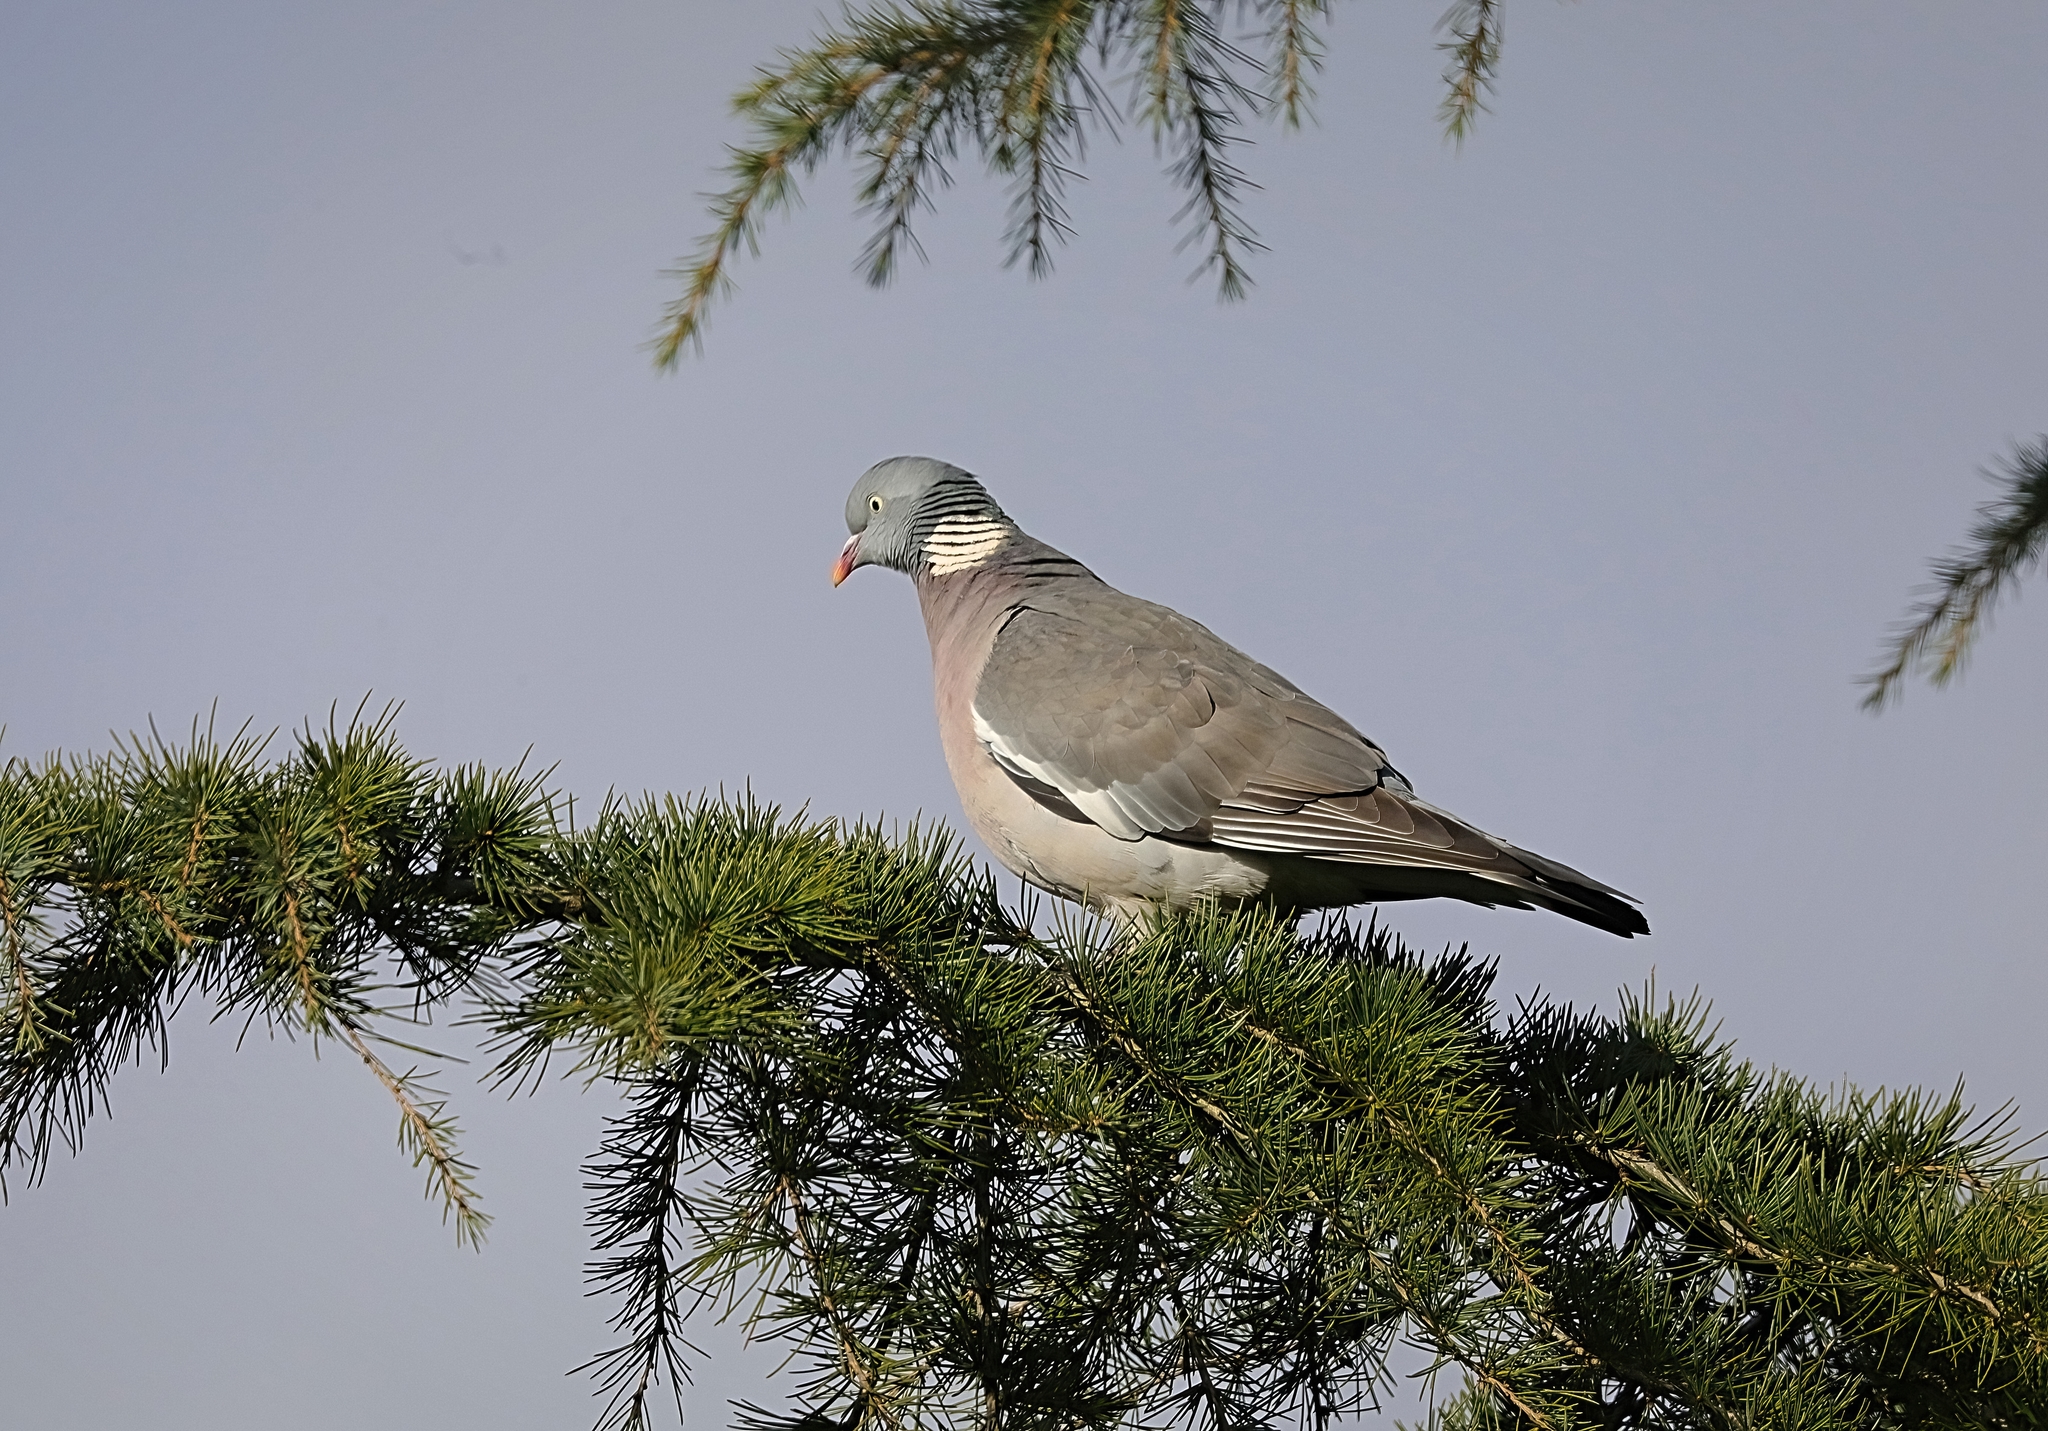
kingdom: Animalia
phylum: Chordata
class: Aves
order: Columbiformes
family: Columbidae
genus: Columba
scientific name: Columba palumbus
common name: Common wood pigeon
